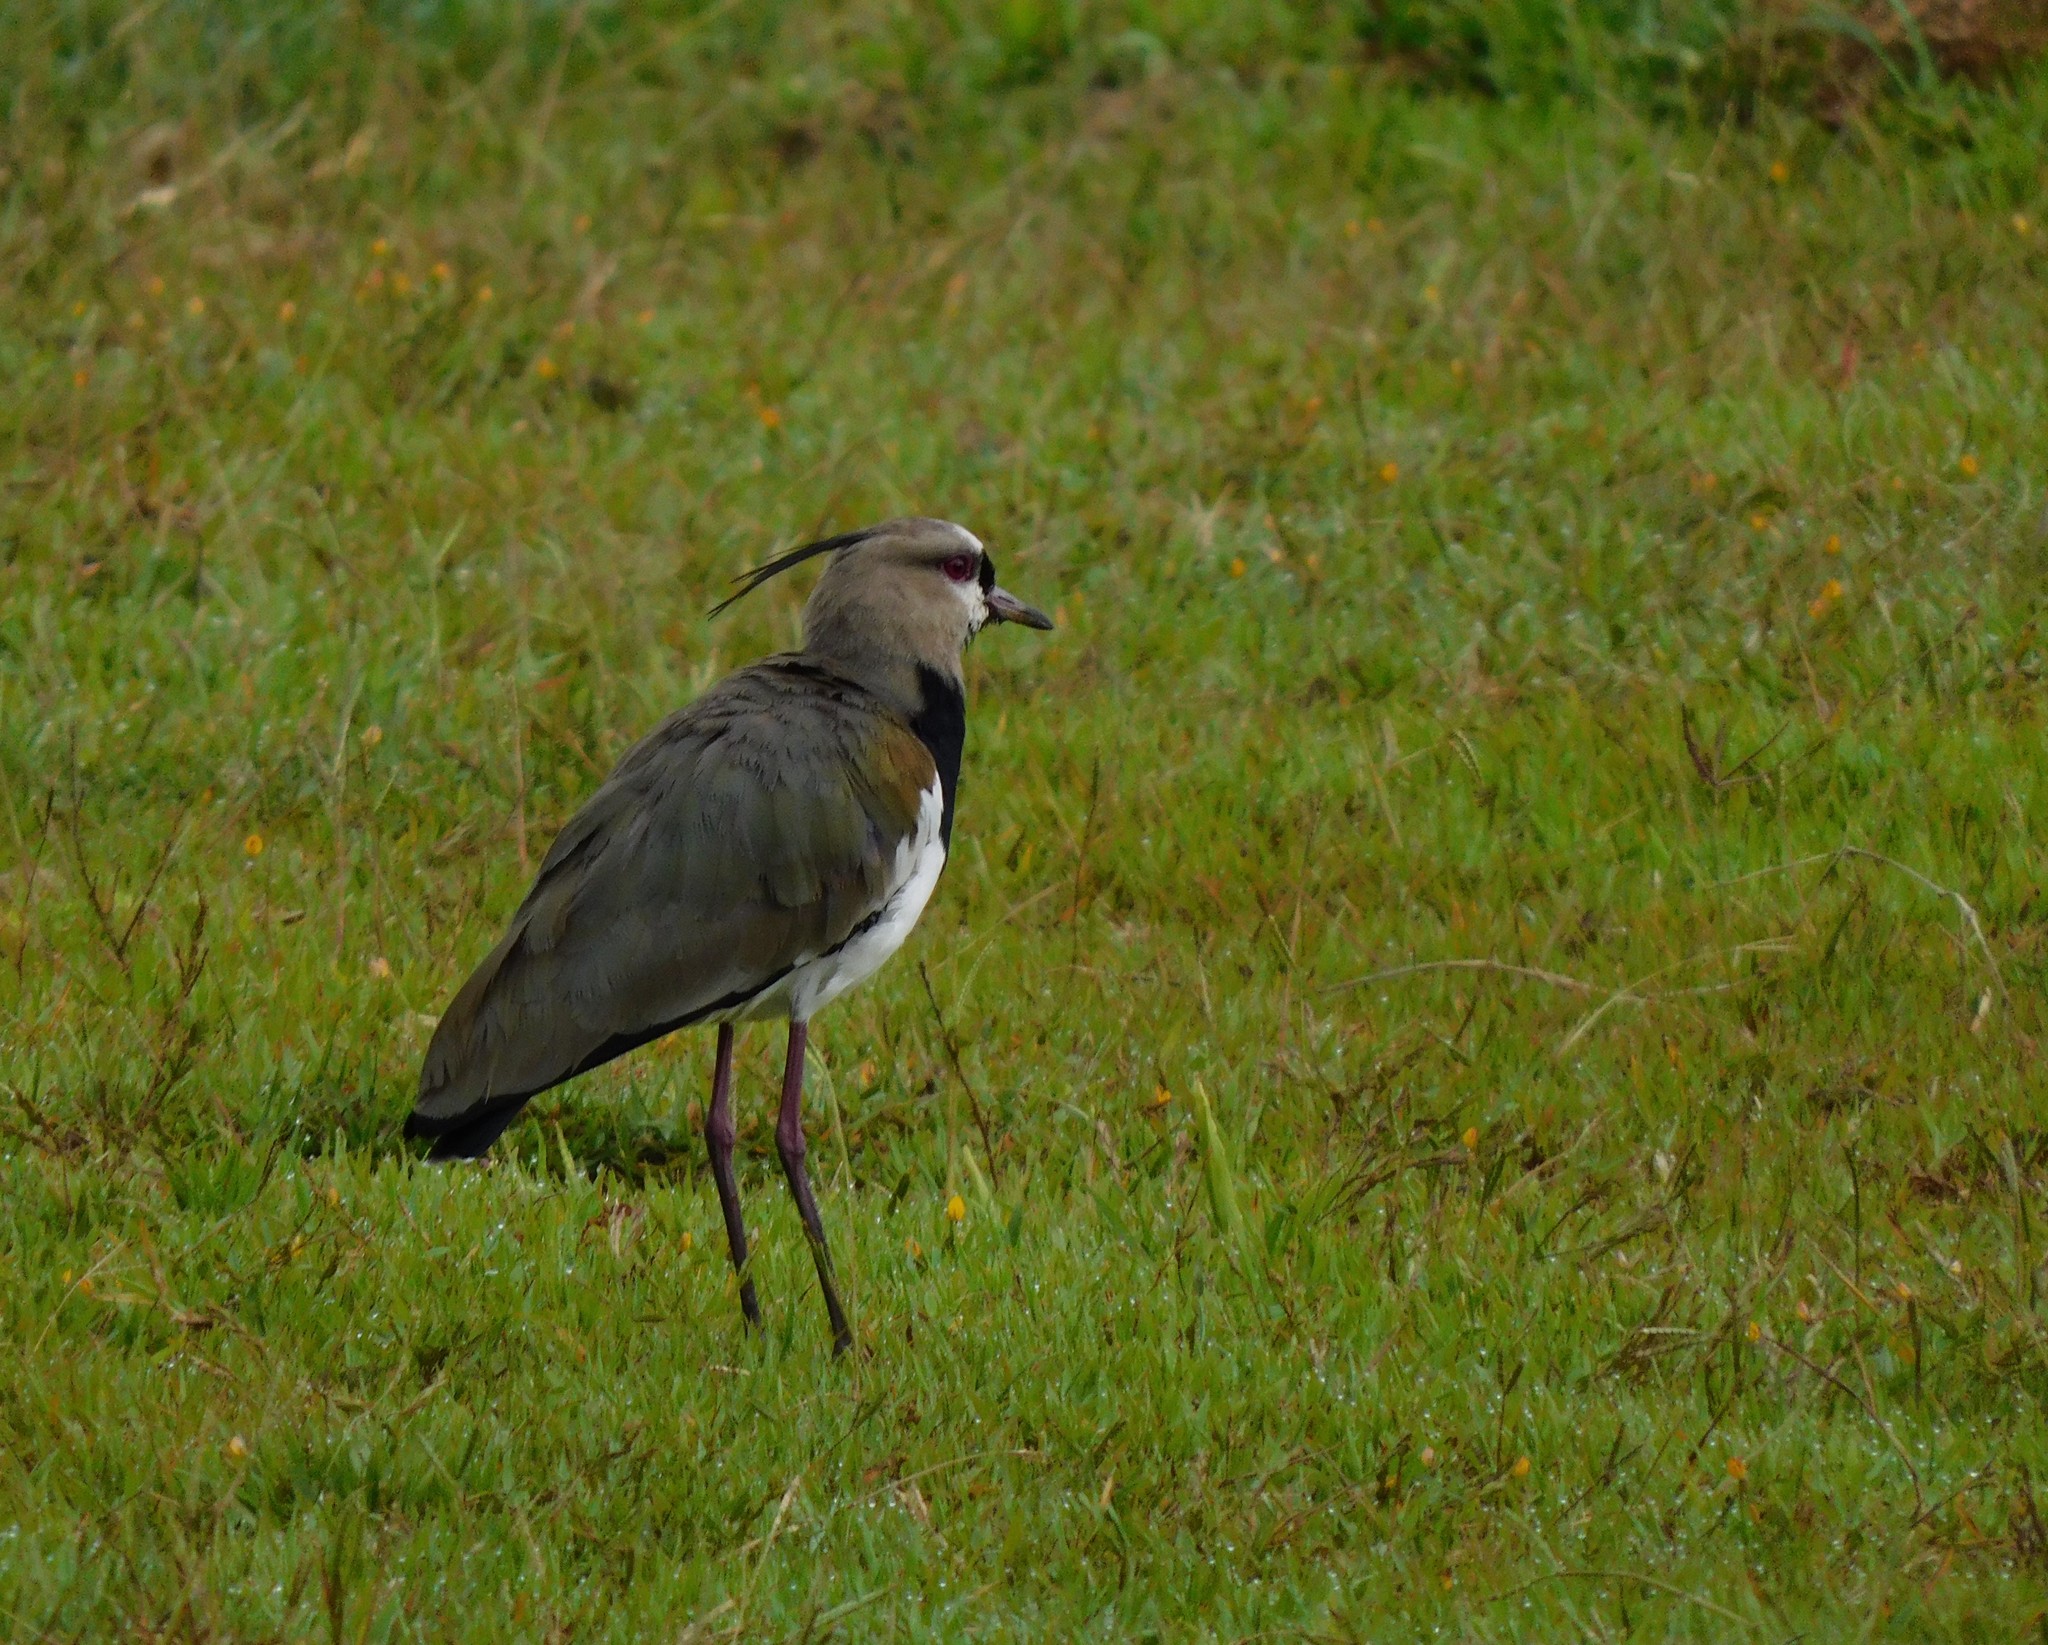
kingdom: Animalia
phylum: Chordata
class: Aves
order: Charadriiformes
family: Charadriidae
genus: Vanellus
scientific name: Vanellus chilensis
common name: Southern lapwing
